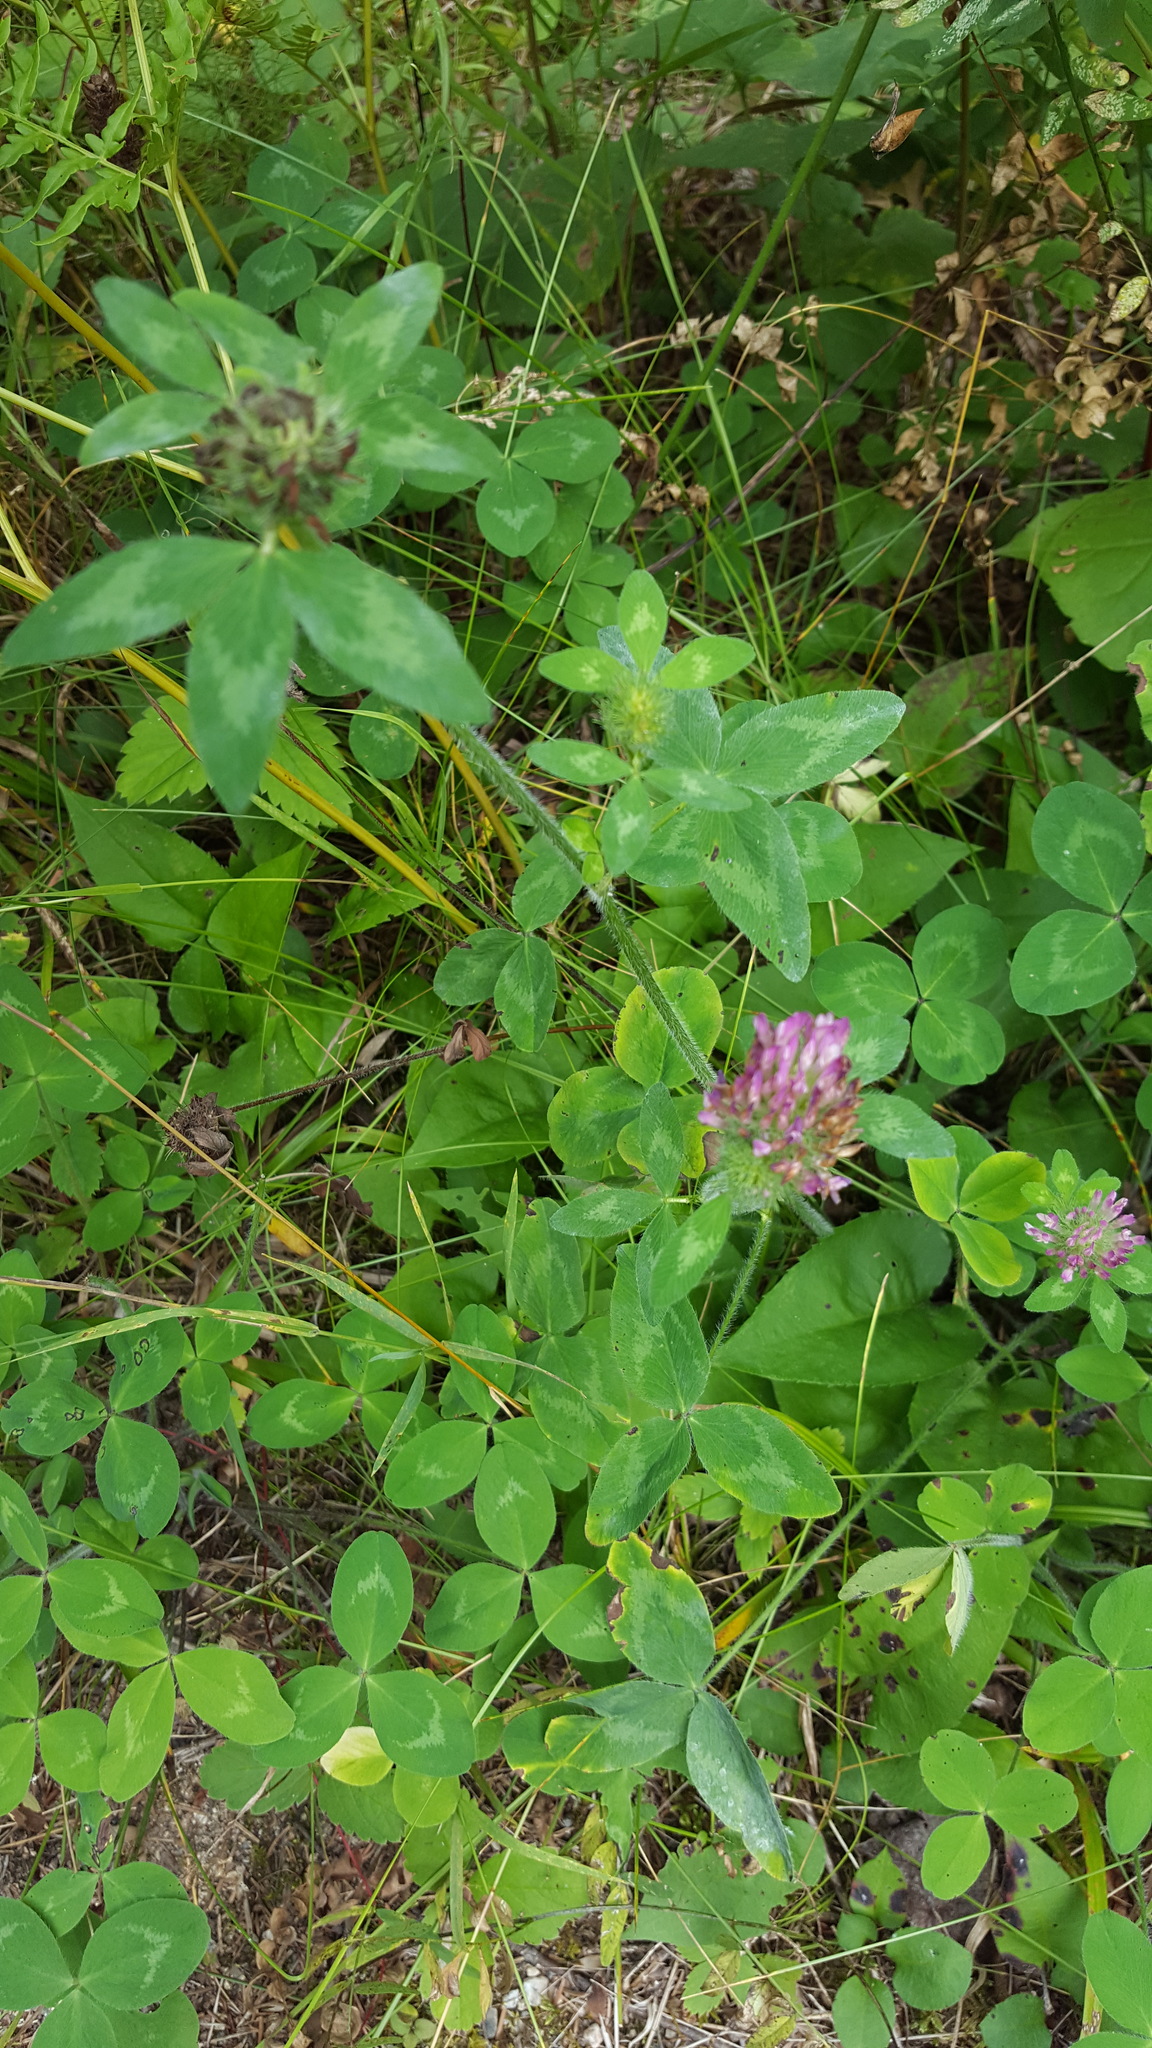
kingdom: Plantae
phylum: Tracheophyta
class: Magnoliopsida
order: Fabales
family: Fabaceae
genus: Trifolium
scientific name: Trifolium pratense
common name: Red clover
